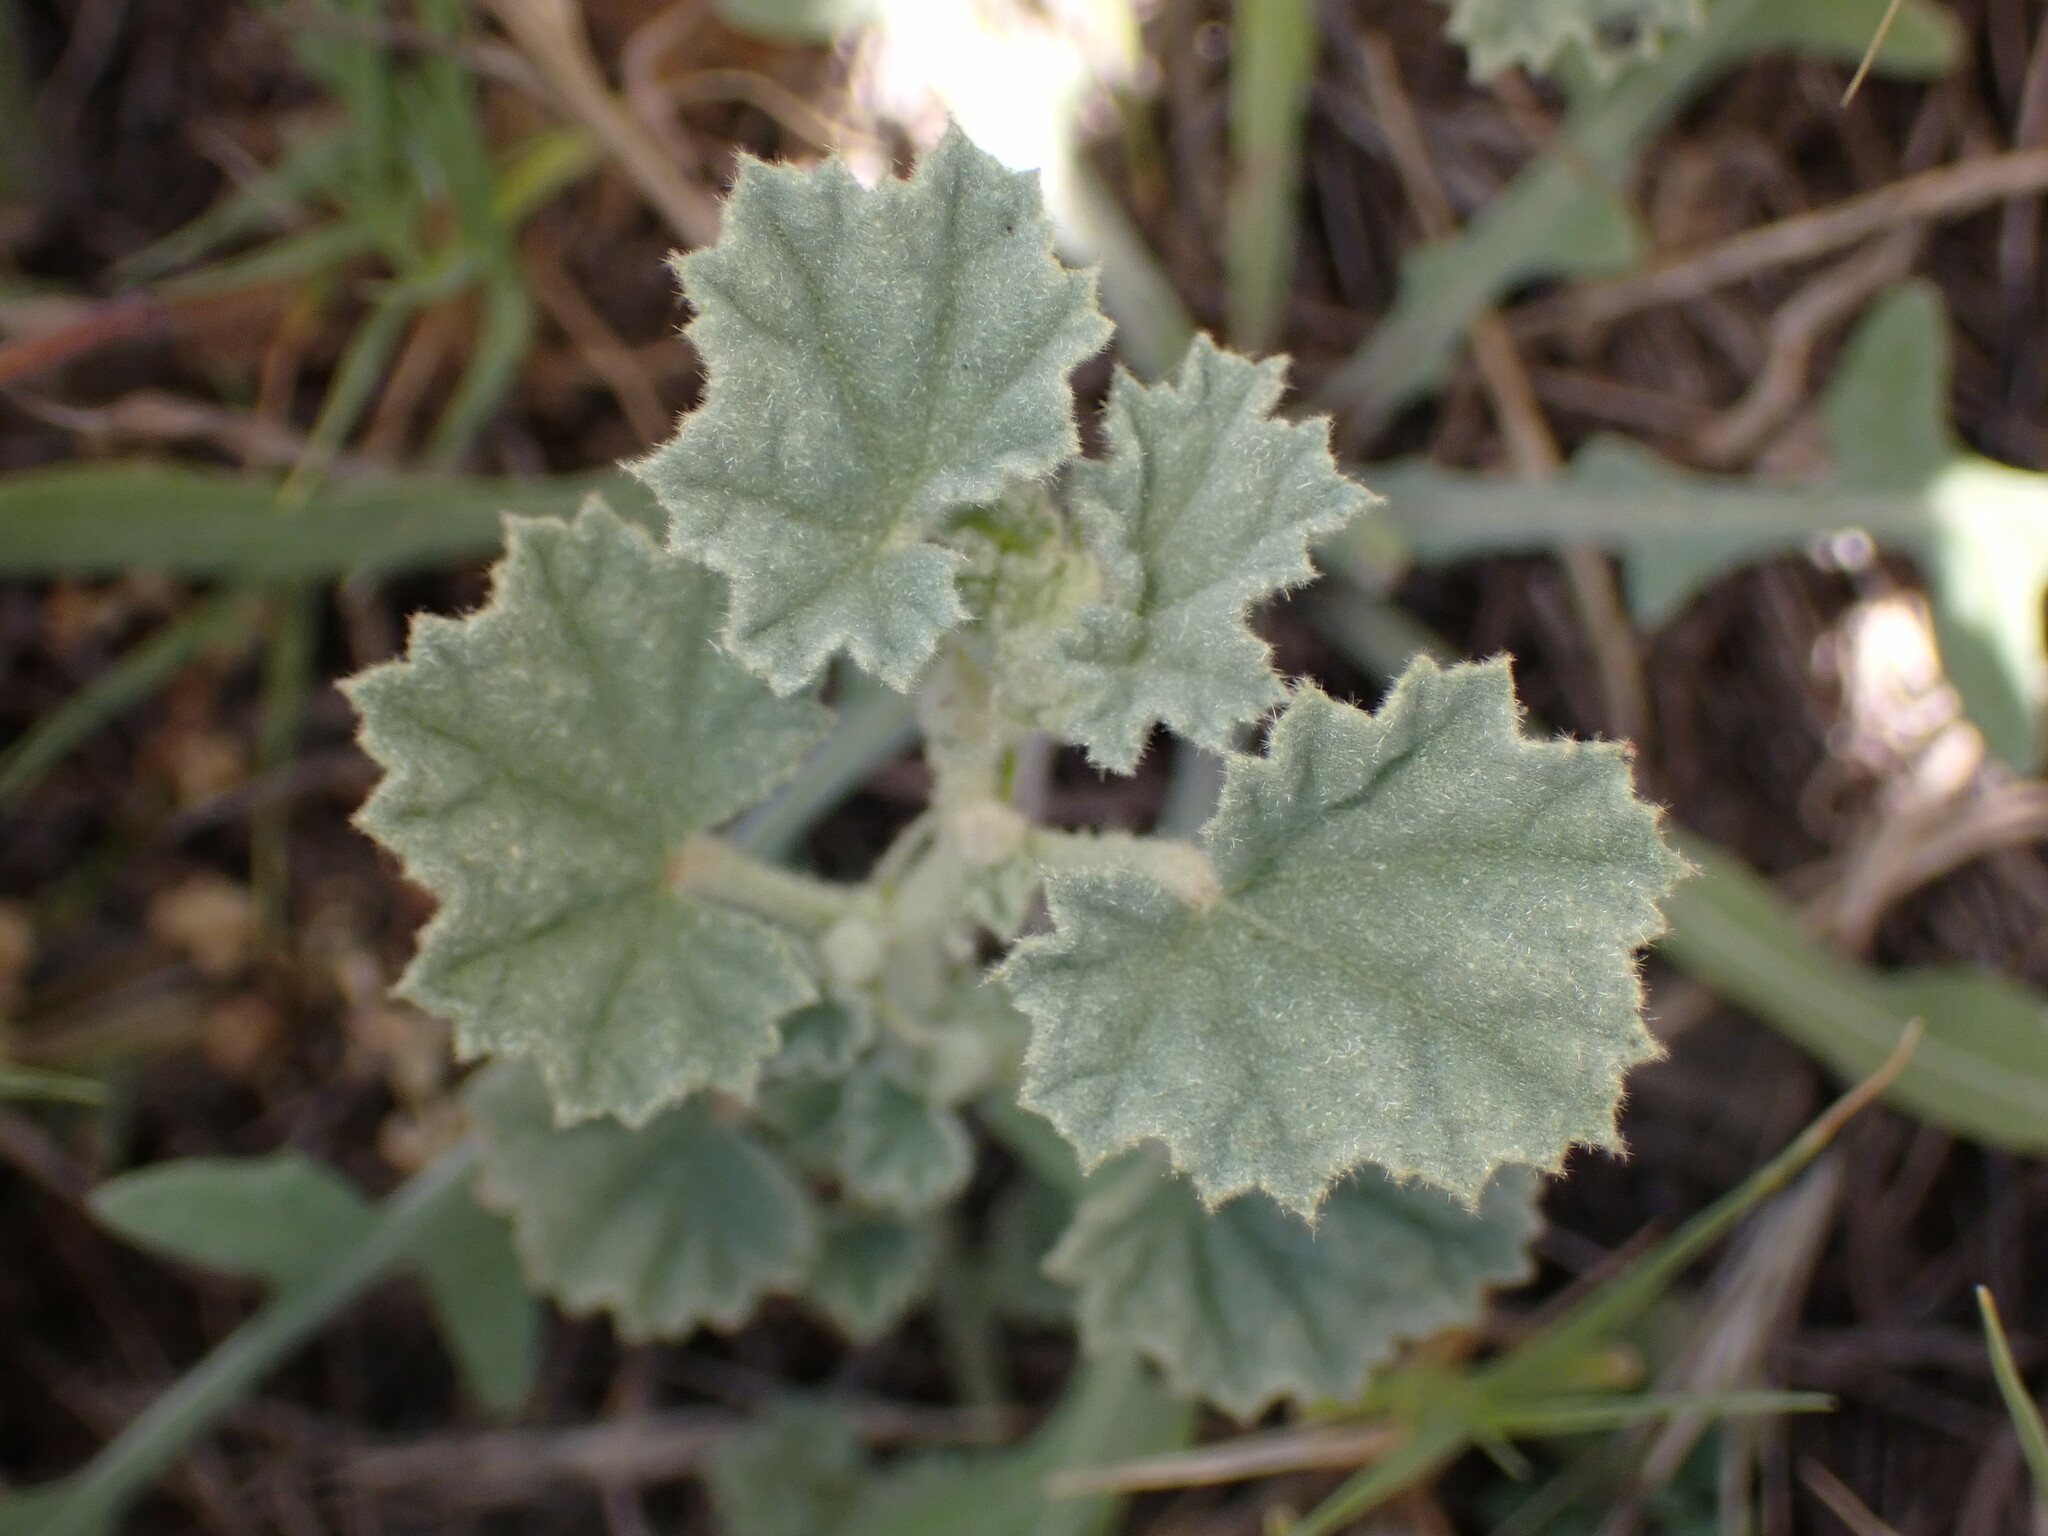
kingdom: Plantae
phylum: Tracheophyta
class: Magnoliopsida
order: Malvales
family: Malvaceae
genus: Malvella
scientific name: Malvella leprosa
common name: Alkali-mallow
